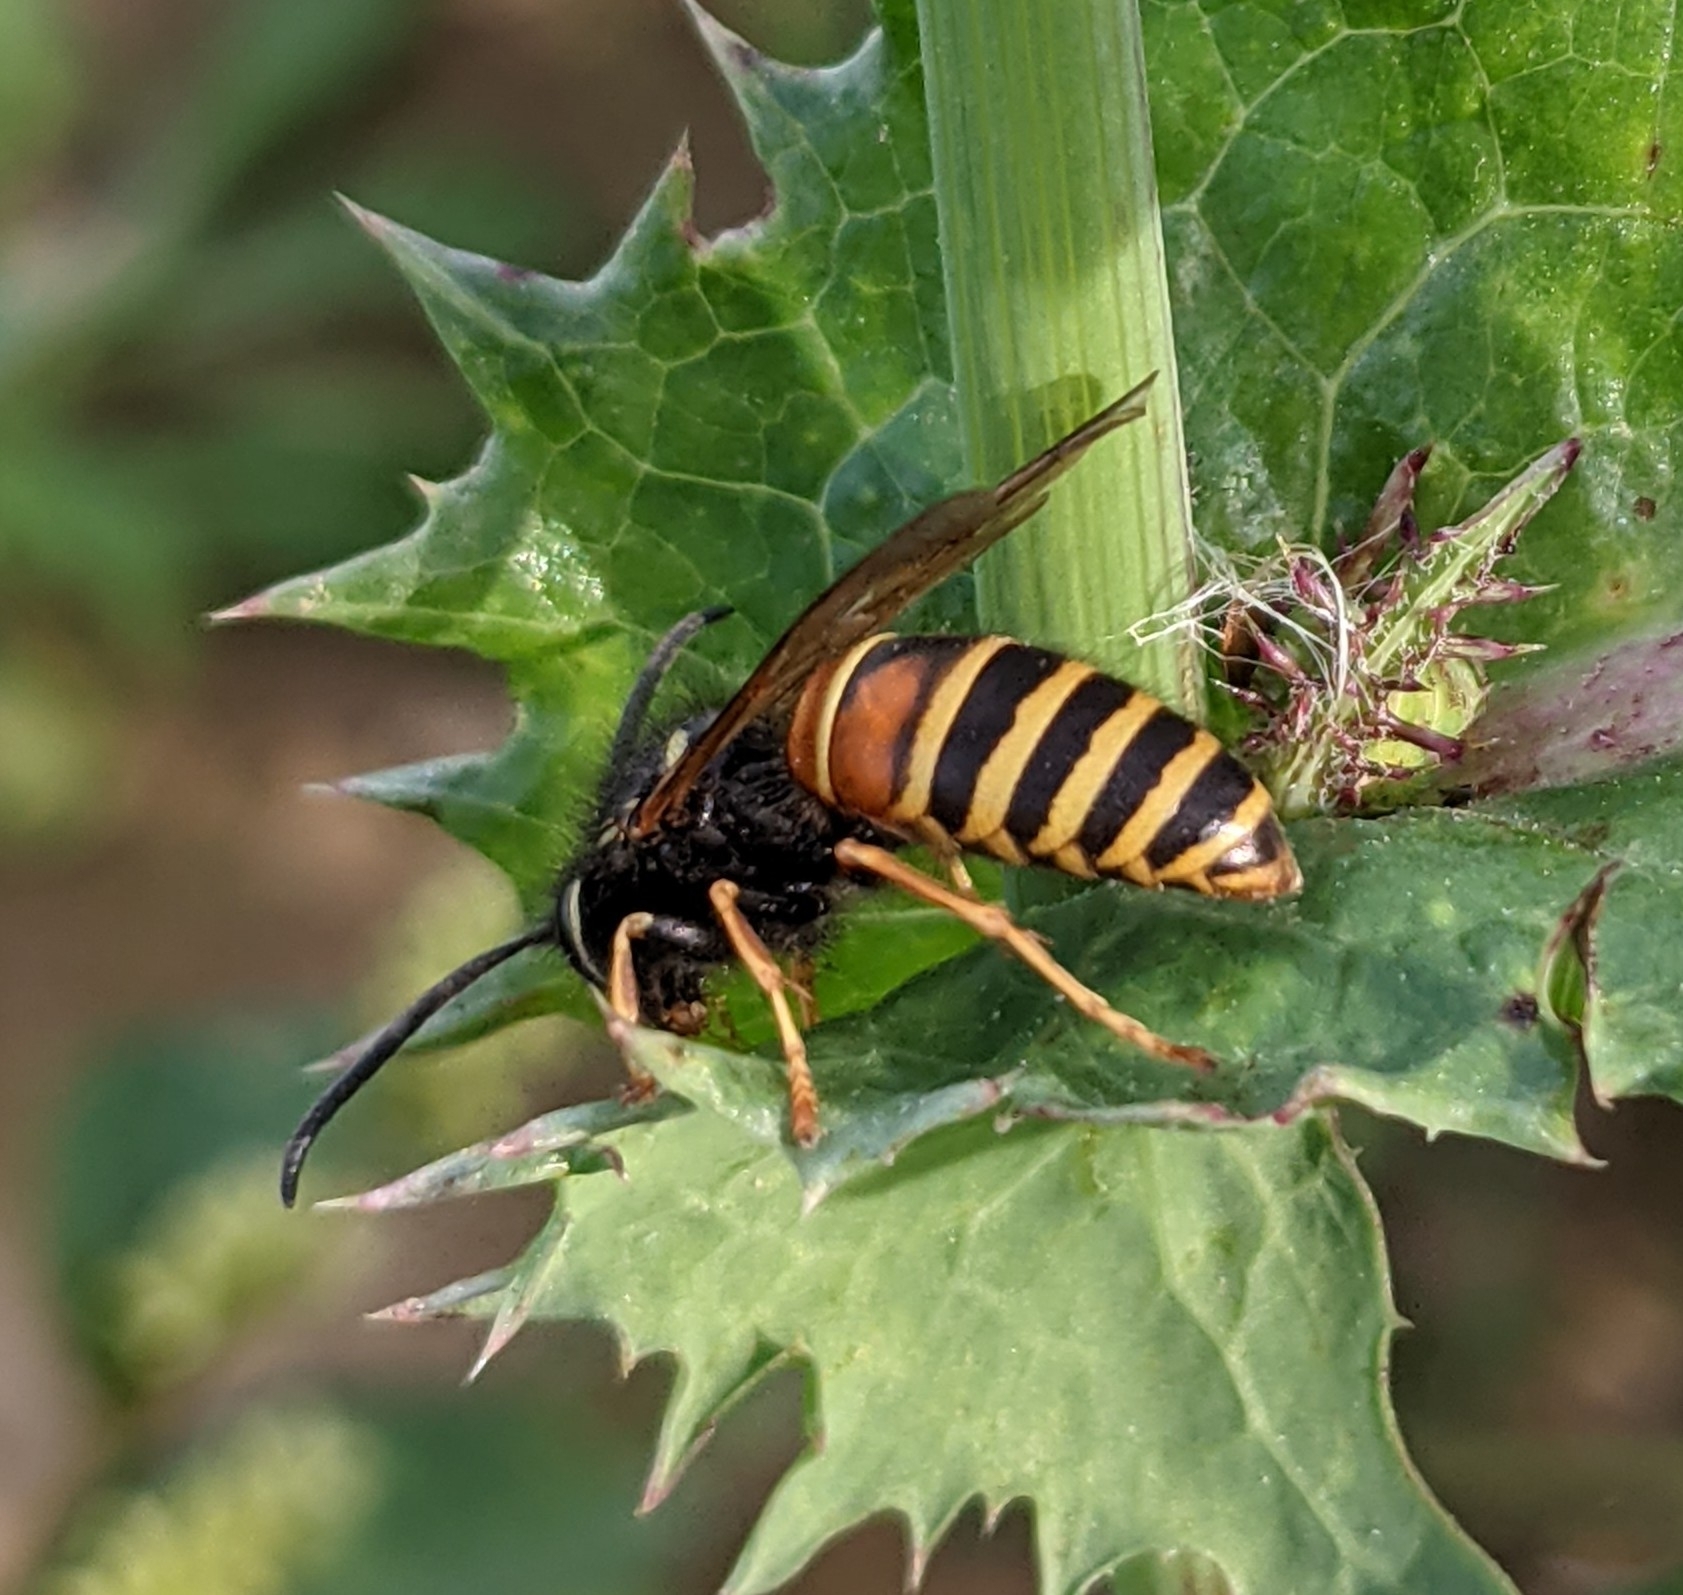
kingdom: Animalia
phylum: Arthropoda
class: Insecta
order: Hymenoptera
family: Vespidae
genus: Vespula
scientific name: Vespula rufa
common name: Red wasp
